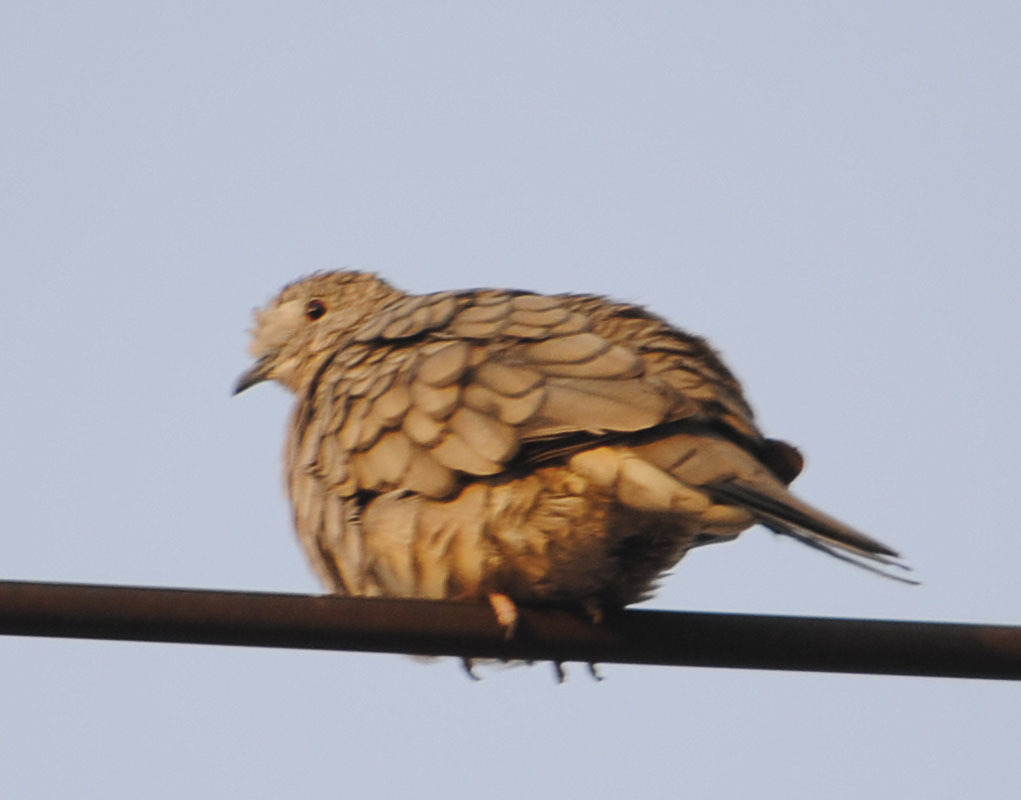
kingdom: Animalia
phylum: Chordata
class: Aves
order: Columbiformes
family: Columbidae
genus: Columbina
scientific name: Columbina inca
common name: Inca dove
